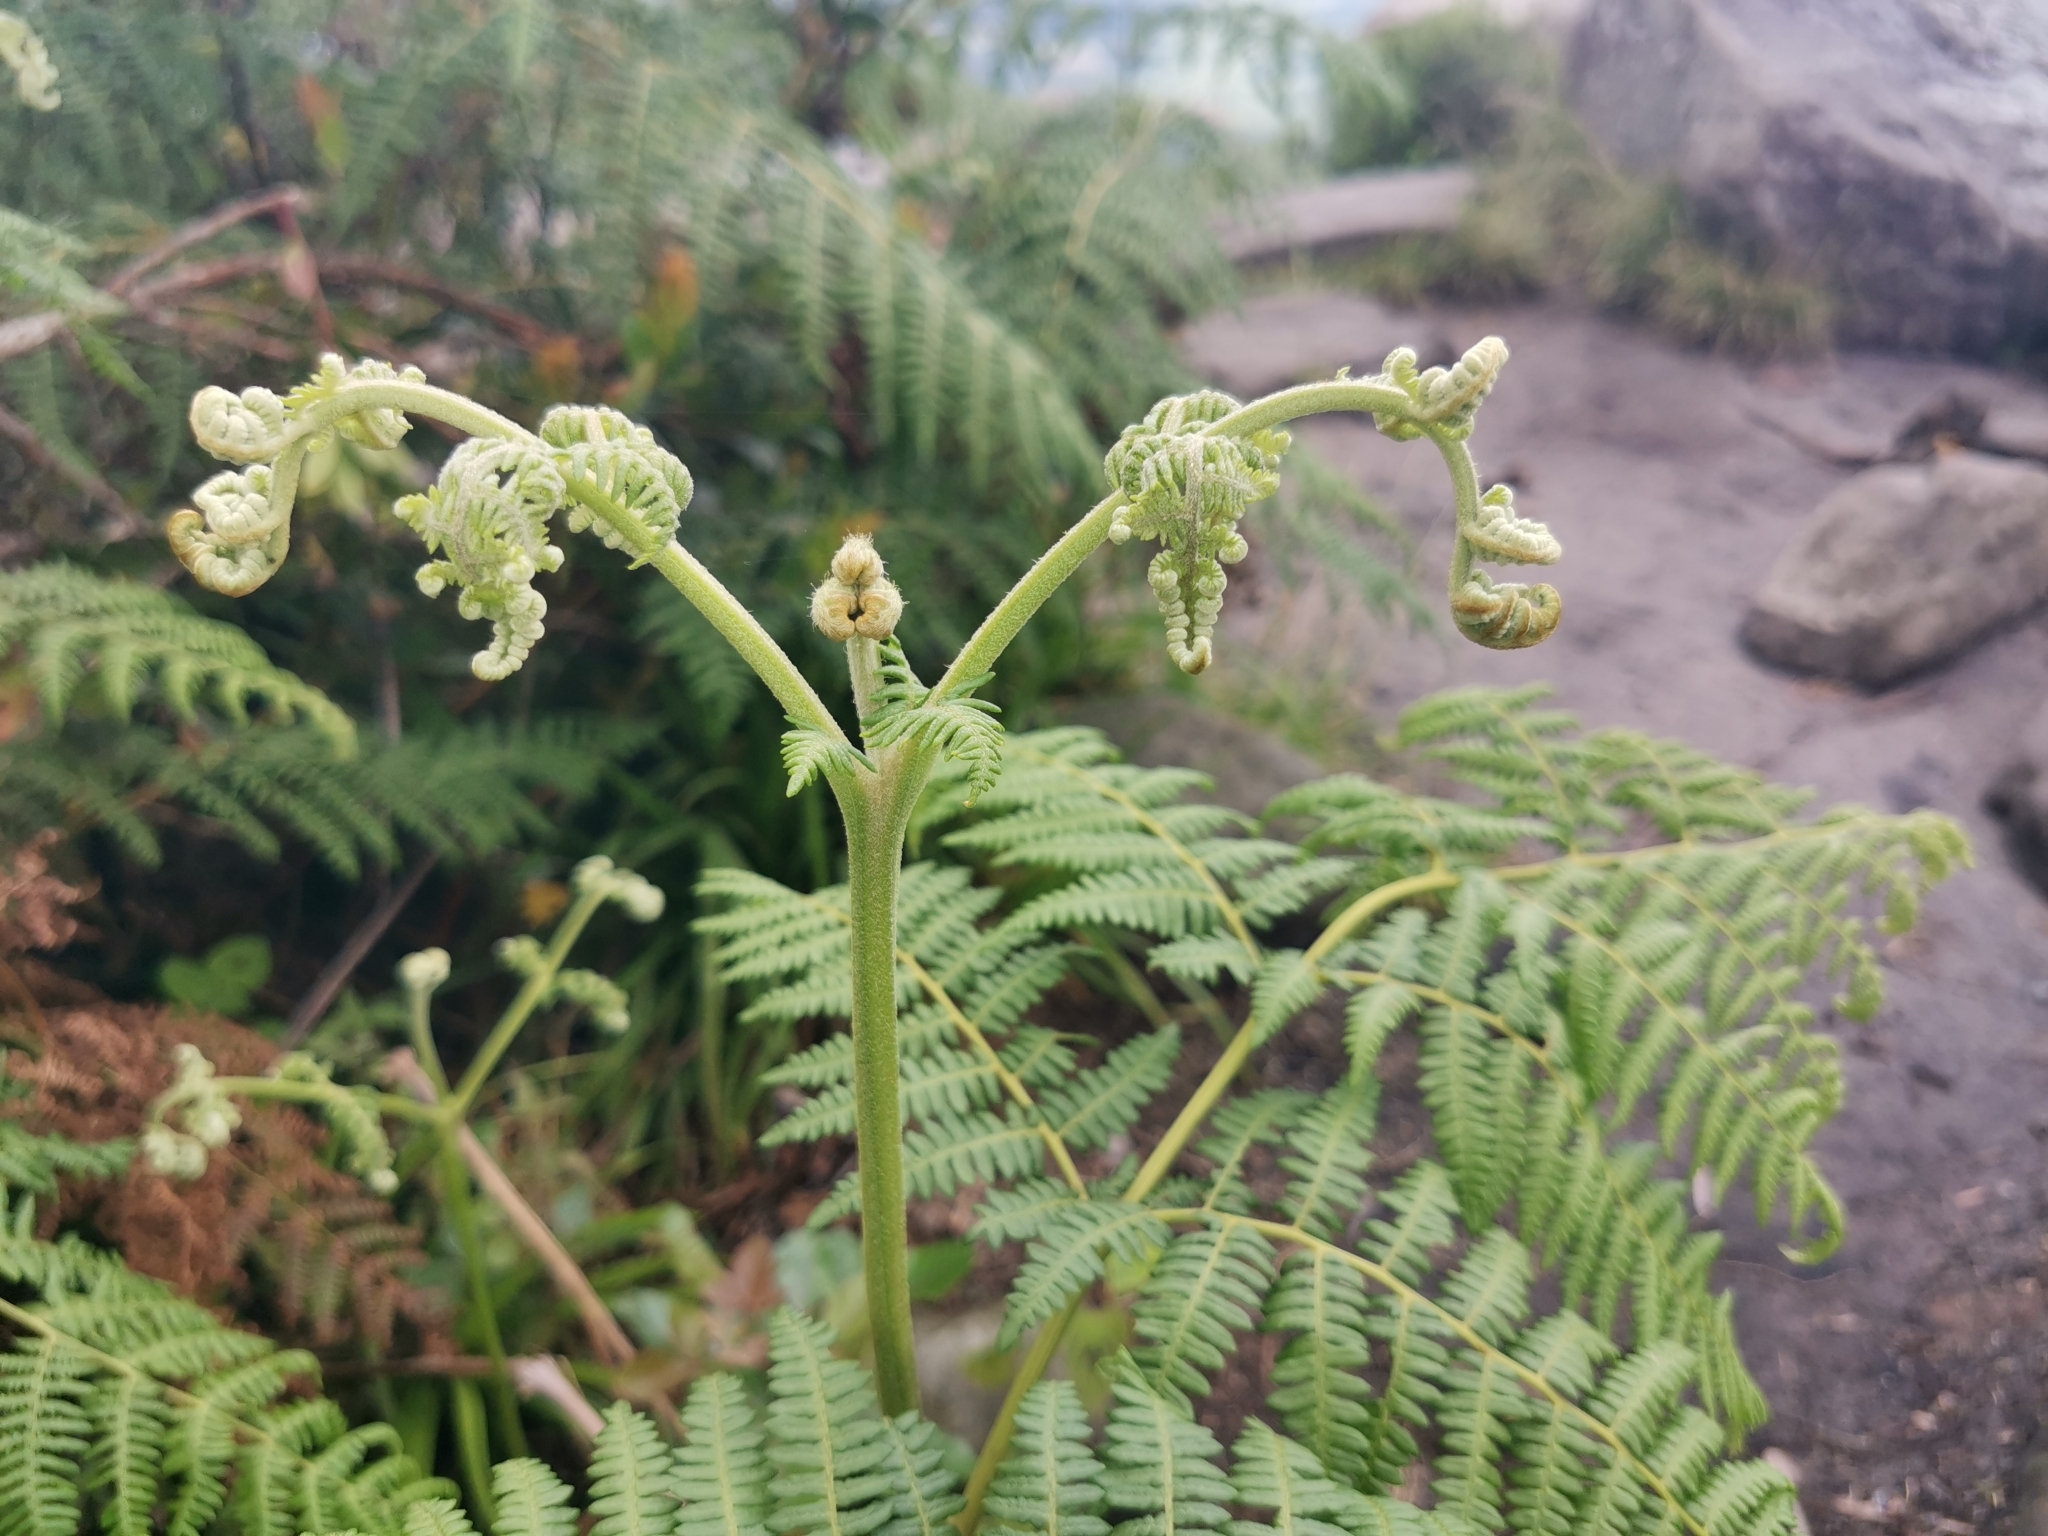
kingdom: Plantae
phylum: Tracheophyta
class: Polypodiopsida
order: Polypodiales
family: Dennstaedtiaceae
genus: Pteridium
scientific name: Pteridium aquilinum
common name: Bracken
